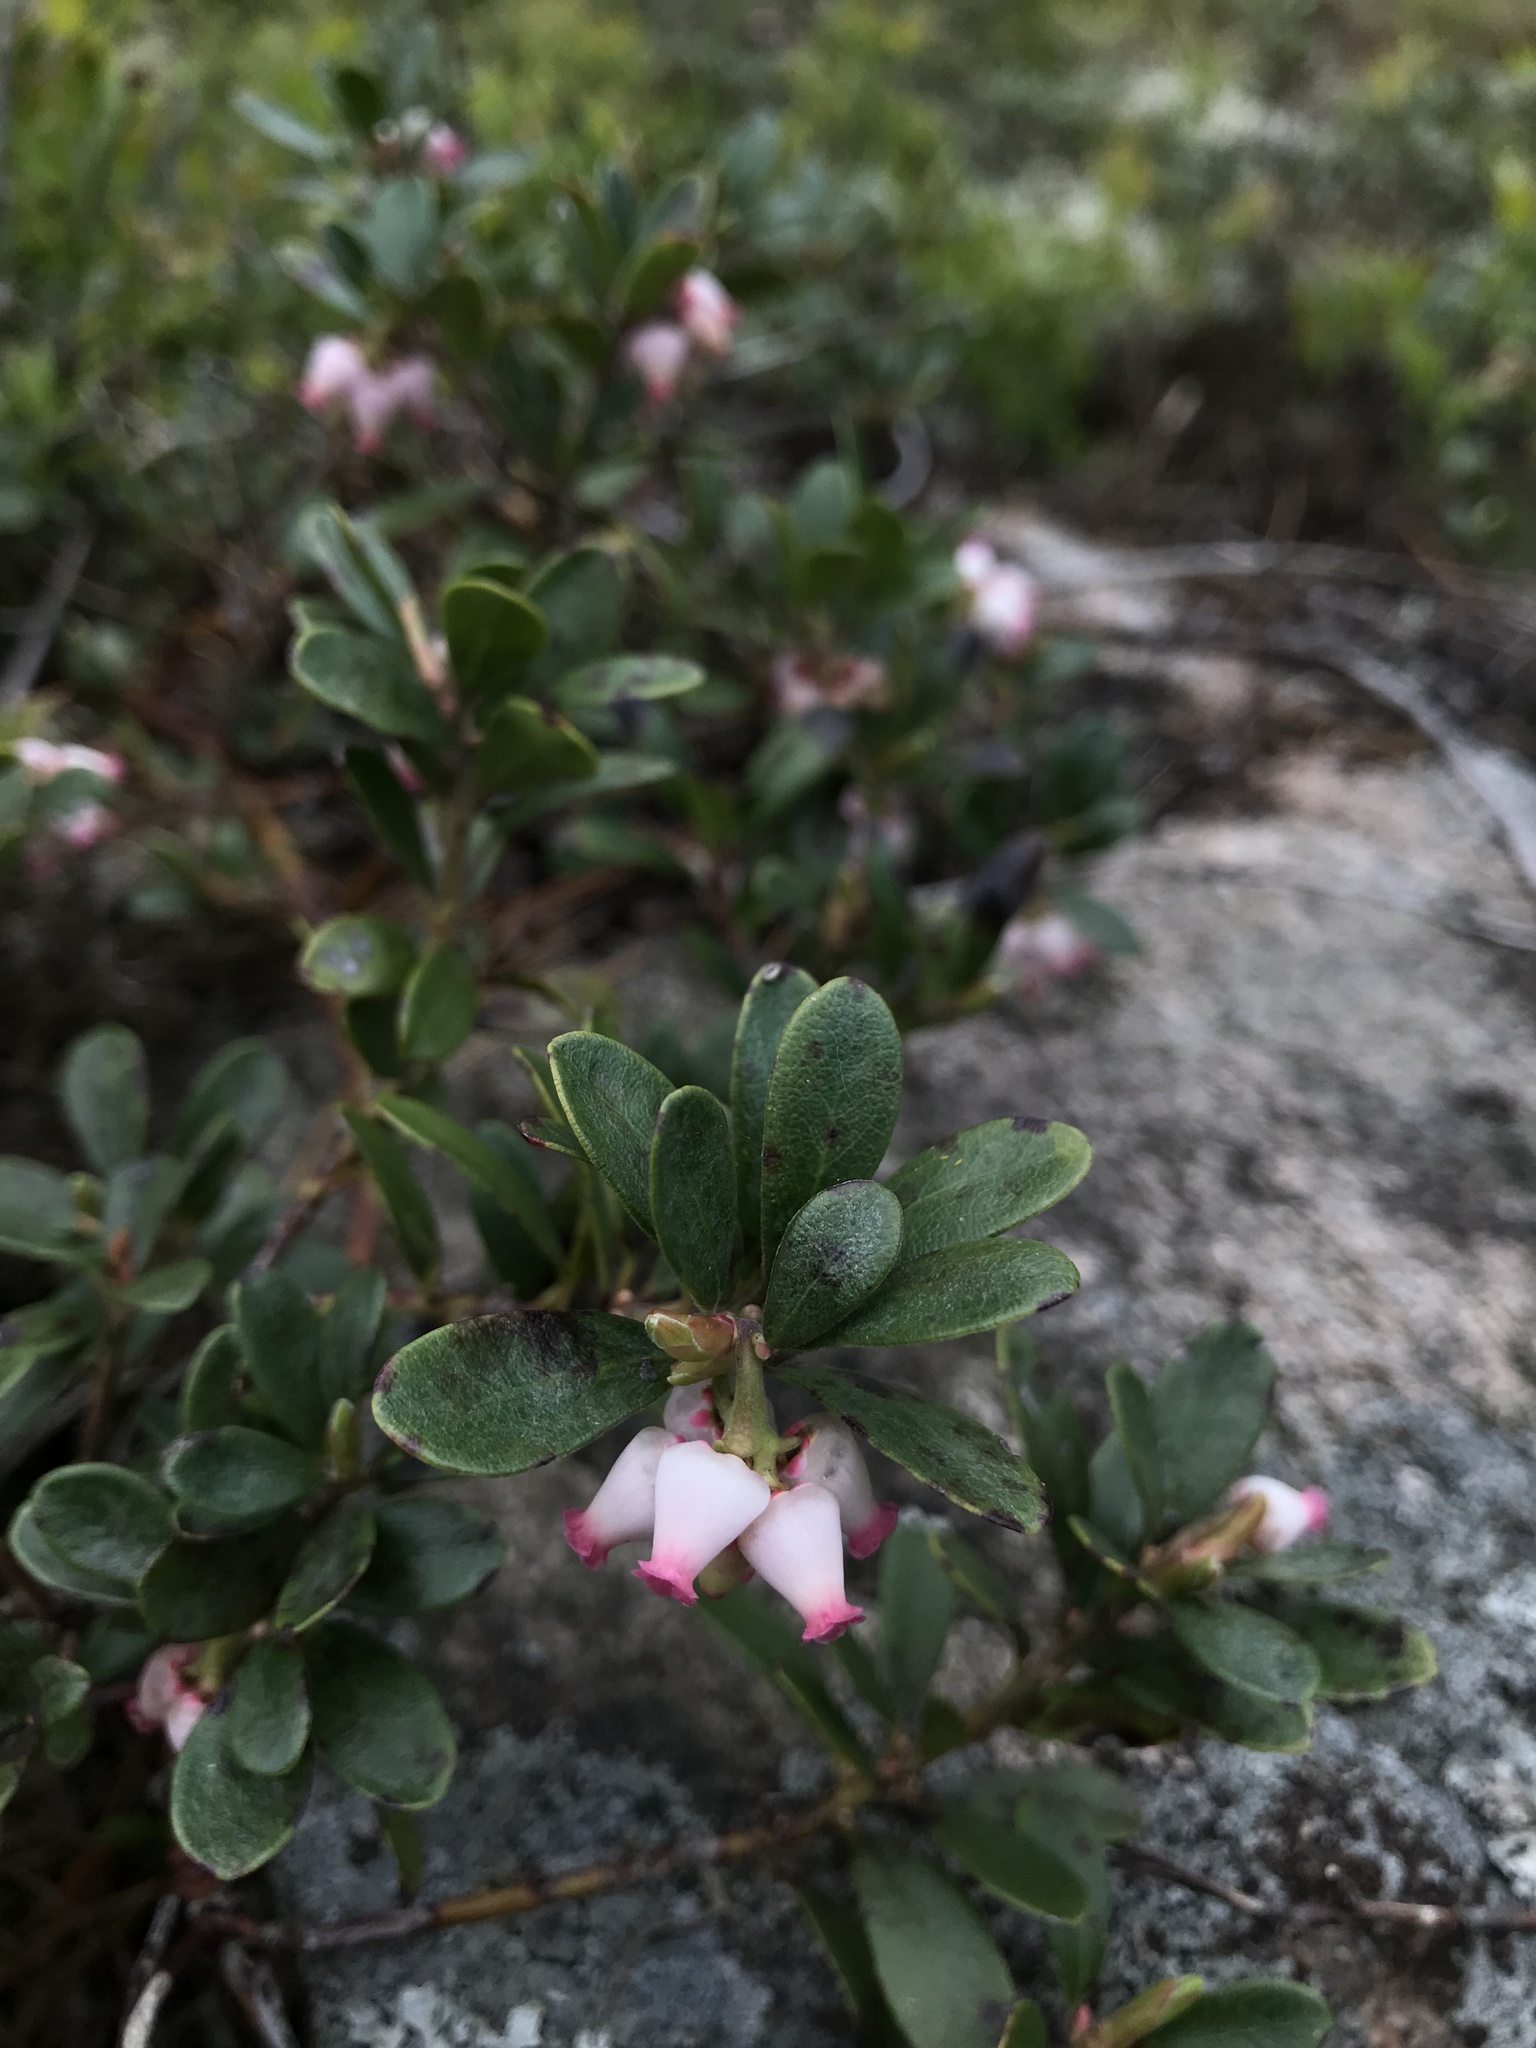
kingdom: Plantae
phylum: Tracheophyta
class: Magnoliopsida
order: Ericales
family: Ericaceae
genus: Arctostaphylos
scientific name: Arctostaphylos uva-ursi
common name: Bearberry
